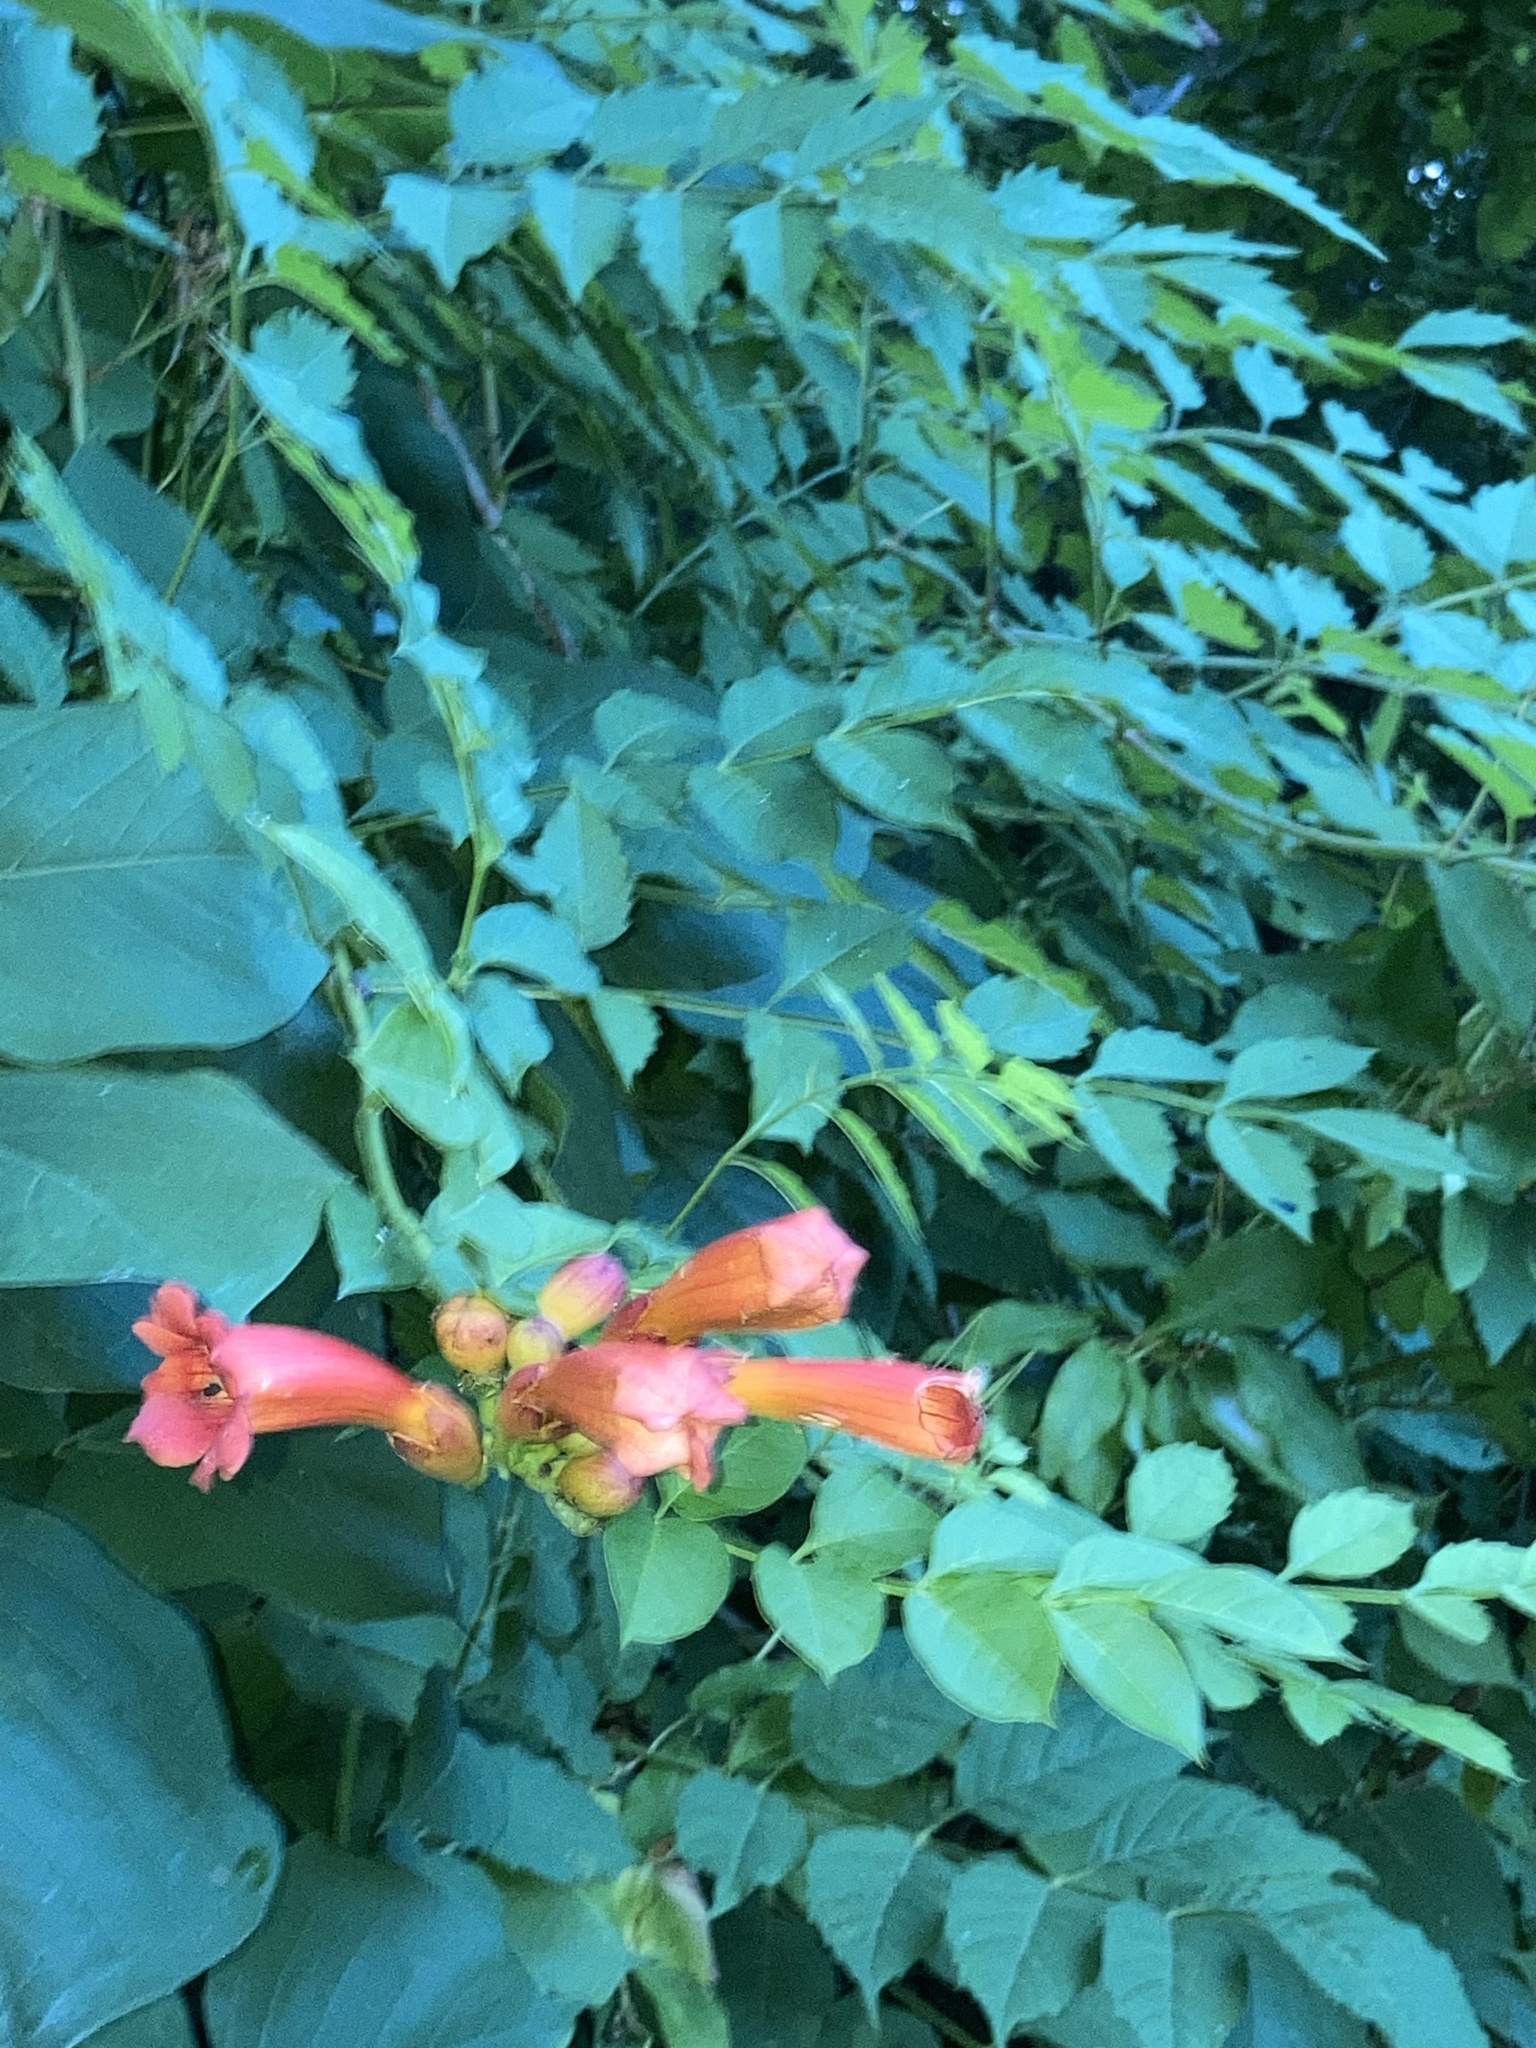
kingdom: Plantae
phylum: Tracheophyta
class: Magnoliopsida
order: Lamiales
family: Bignoniaceae
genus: Campsis
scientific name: Campsis radicans
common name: Trumpet-creeper
